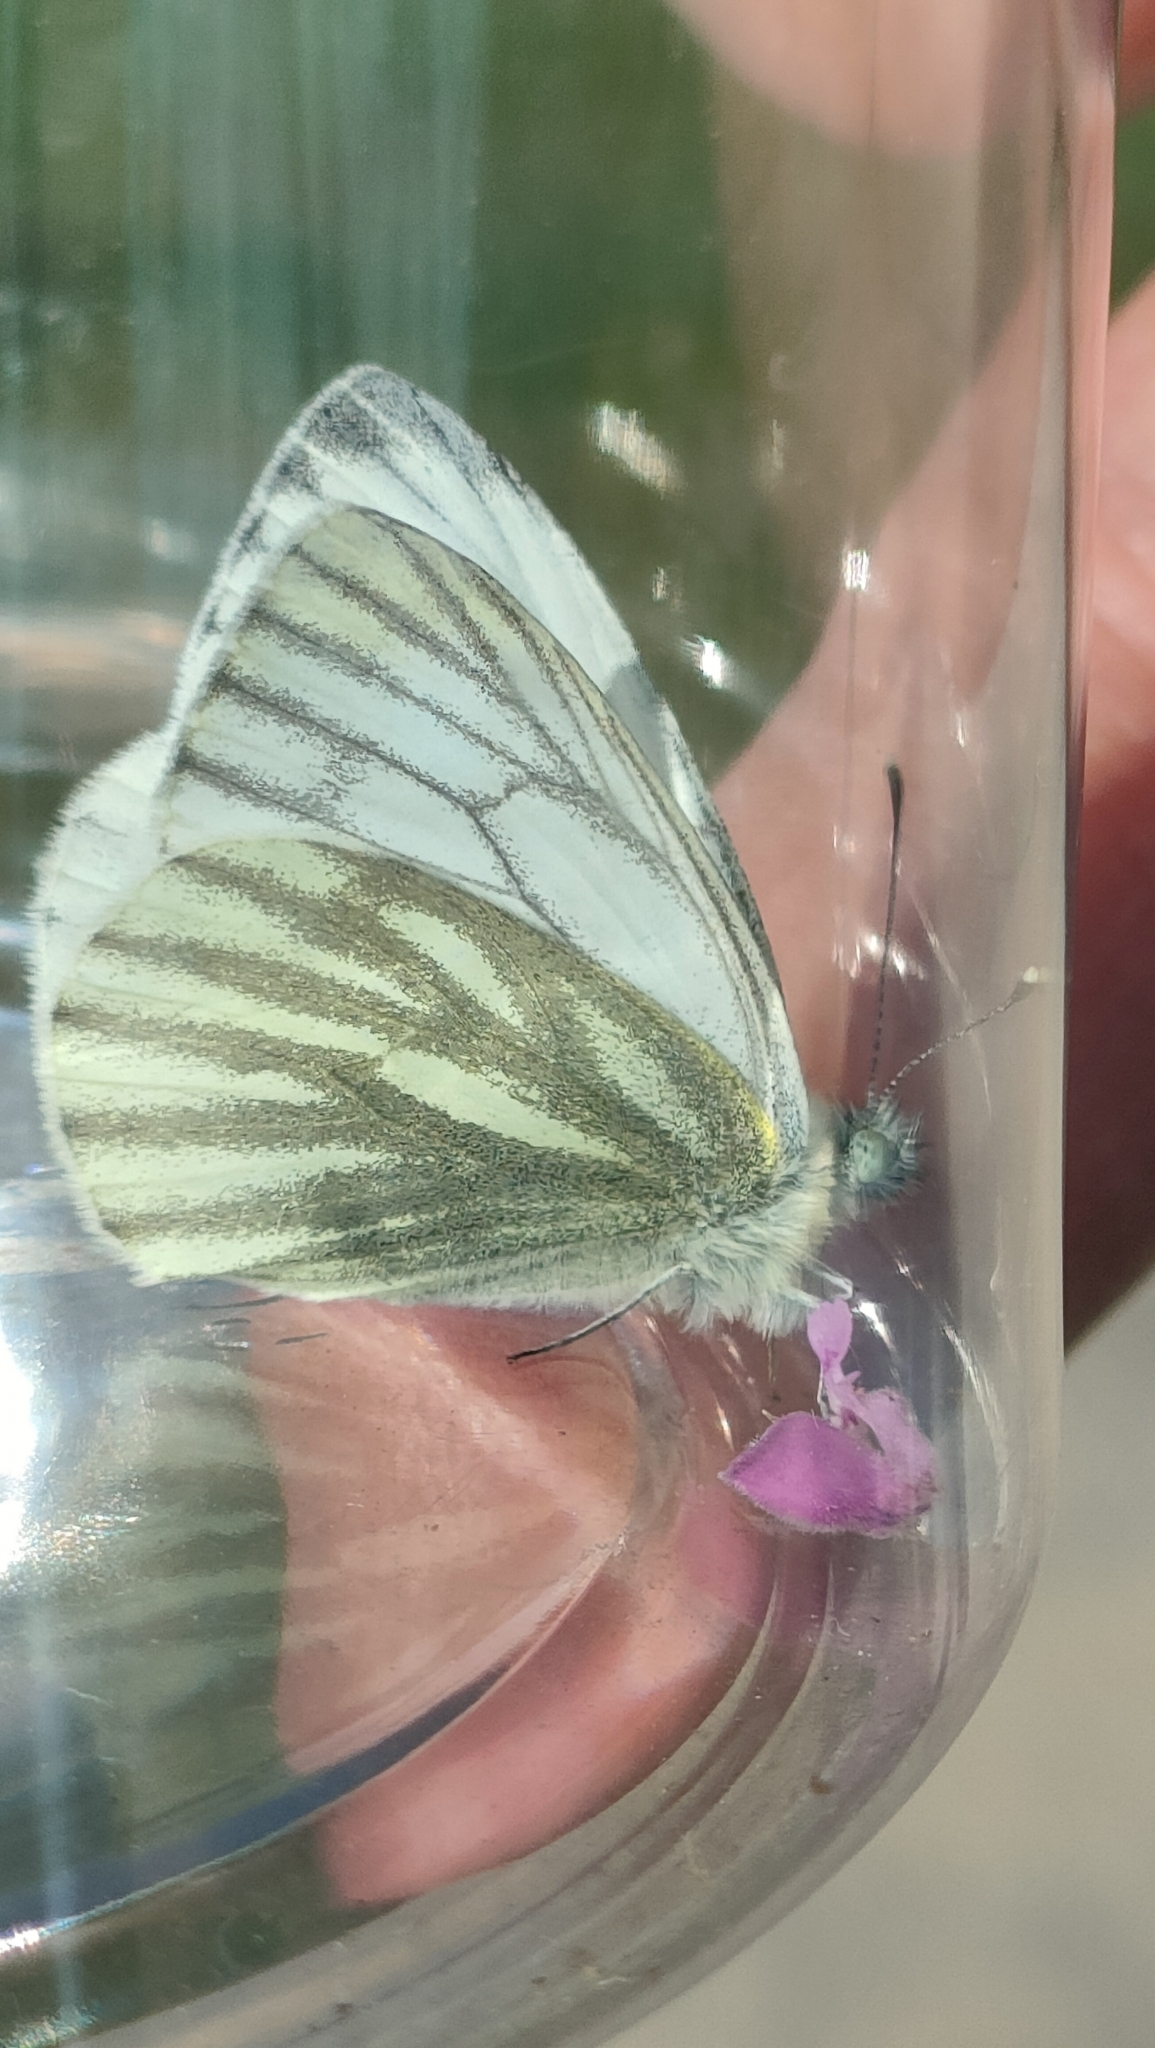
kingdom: Animalia
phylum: Arthropoda
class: Insecta
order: Lepidoptera
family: Pieridae
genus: Pieris
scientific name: Pieris napi
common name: Green-veined white
